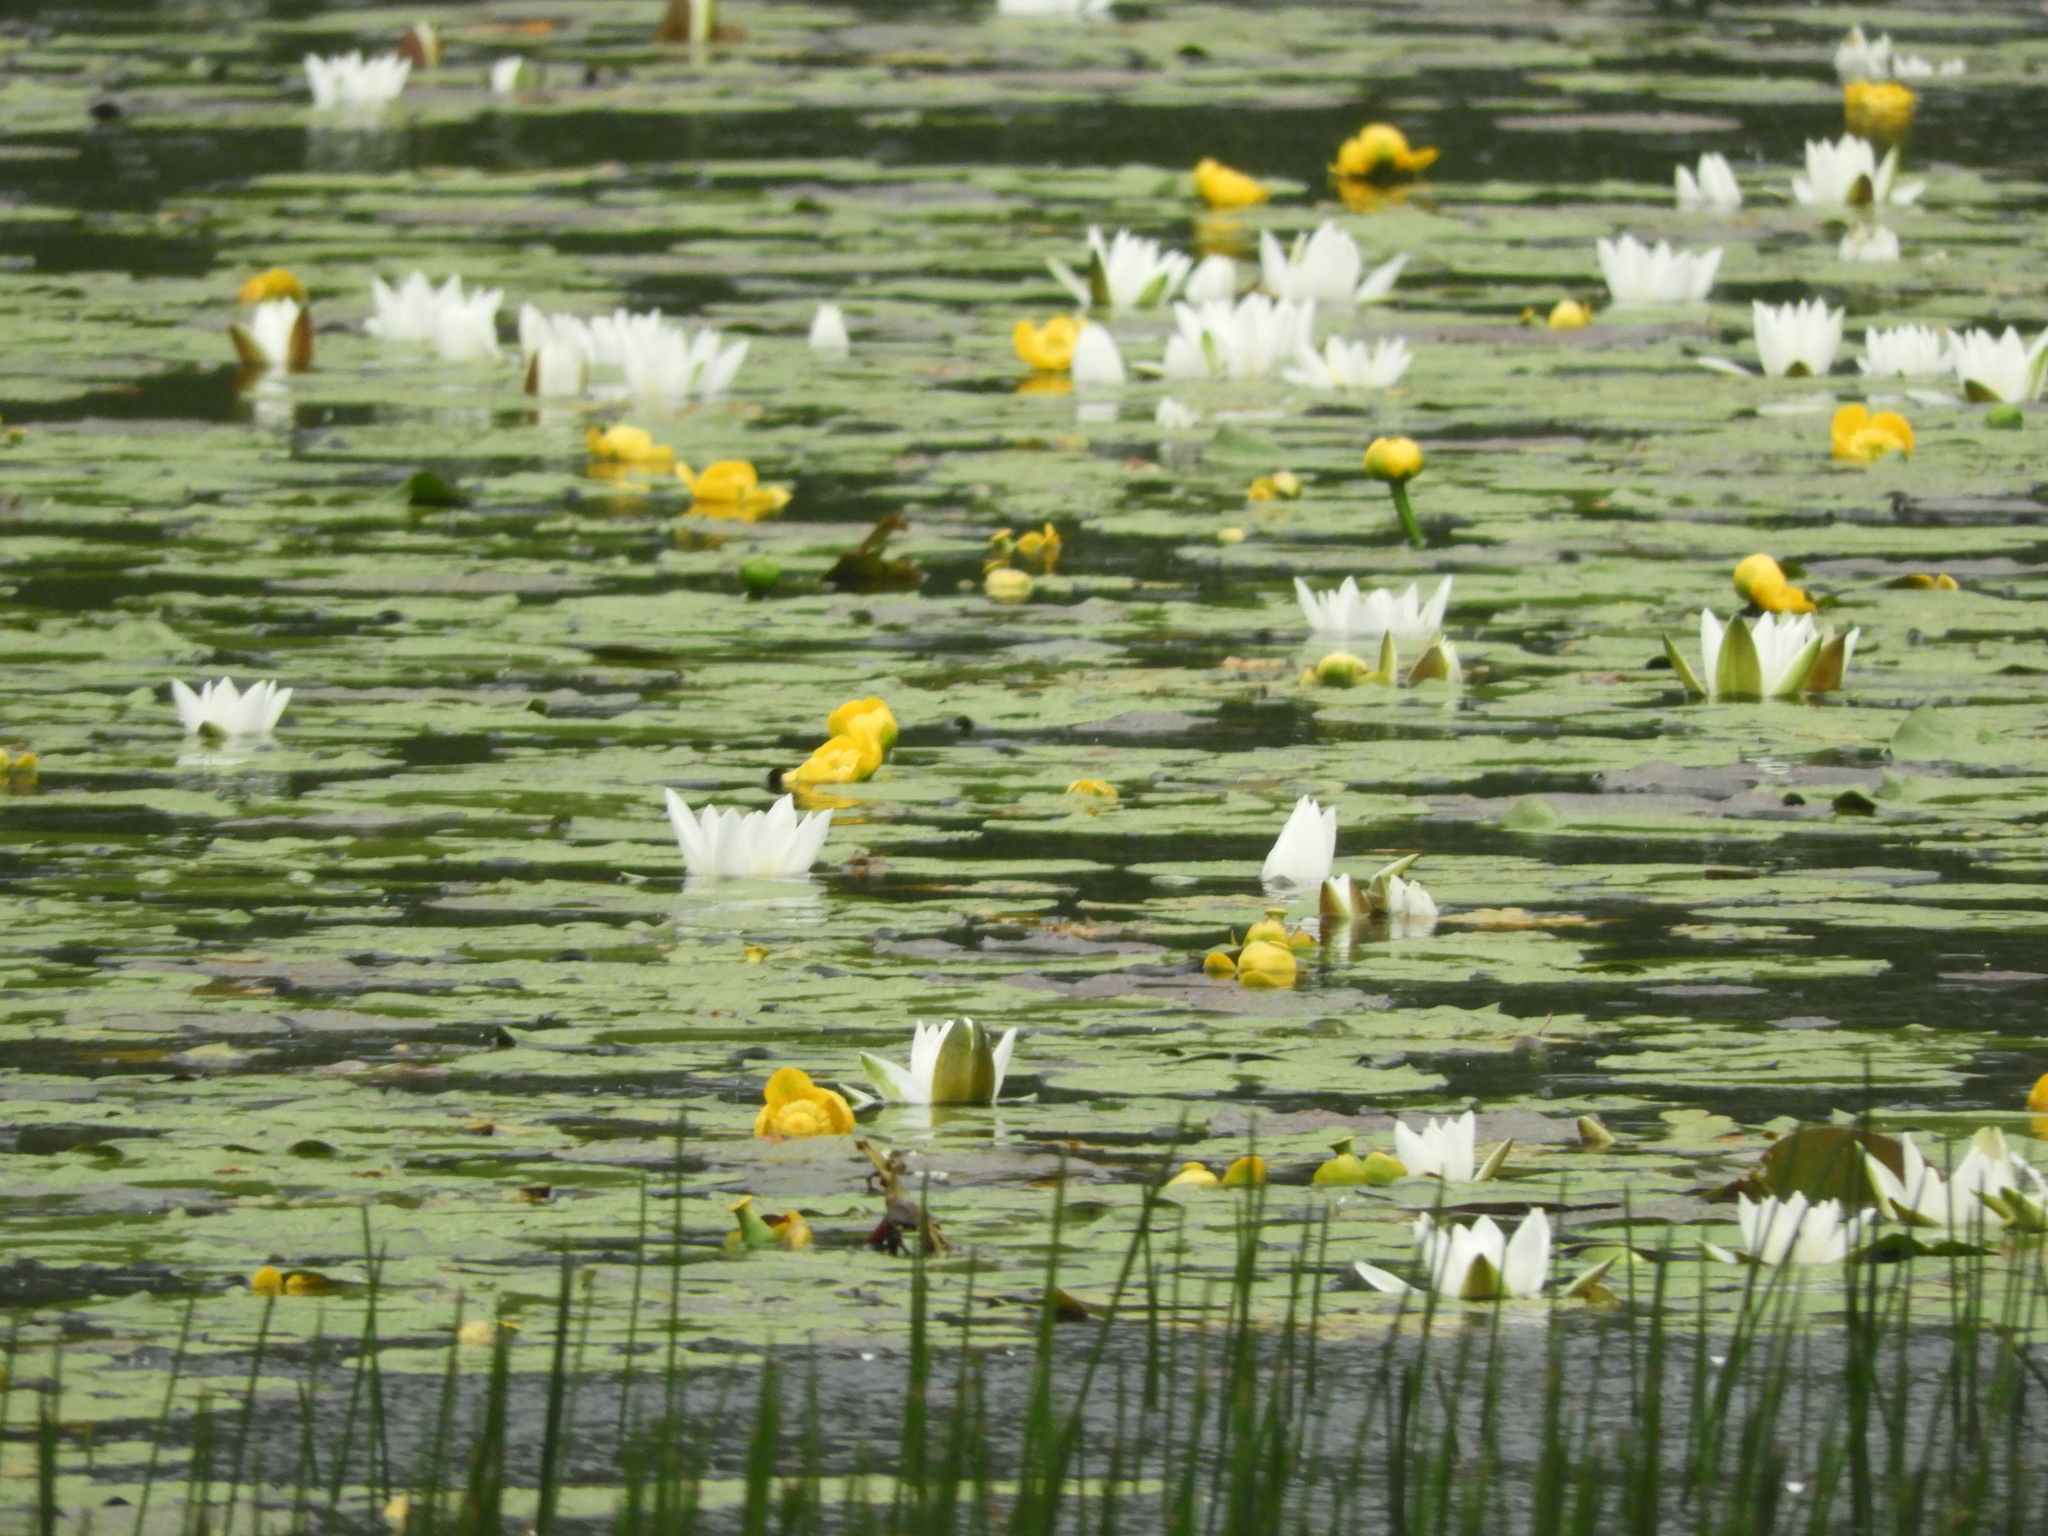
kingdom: Plantae
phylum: Tracheophyta
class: Magnoliopsida
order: Nymphaeales
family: Nymphaeaceae
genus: Nuphar
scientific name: Nuphar lutea
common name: Yellow water-lily
